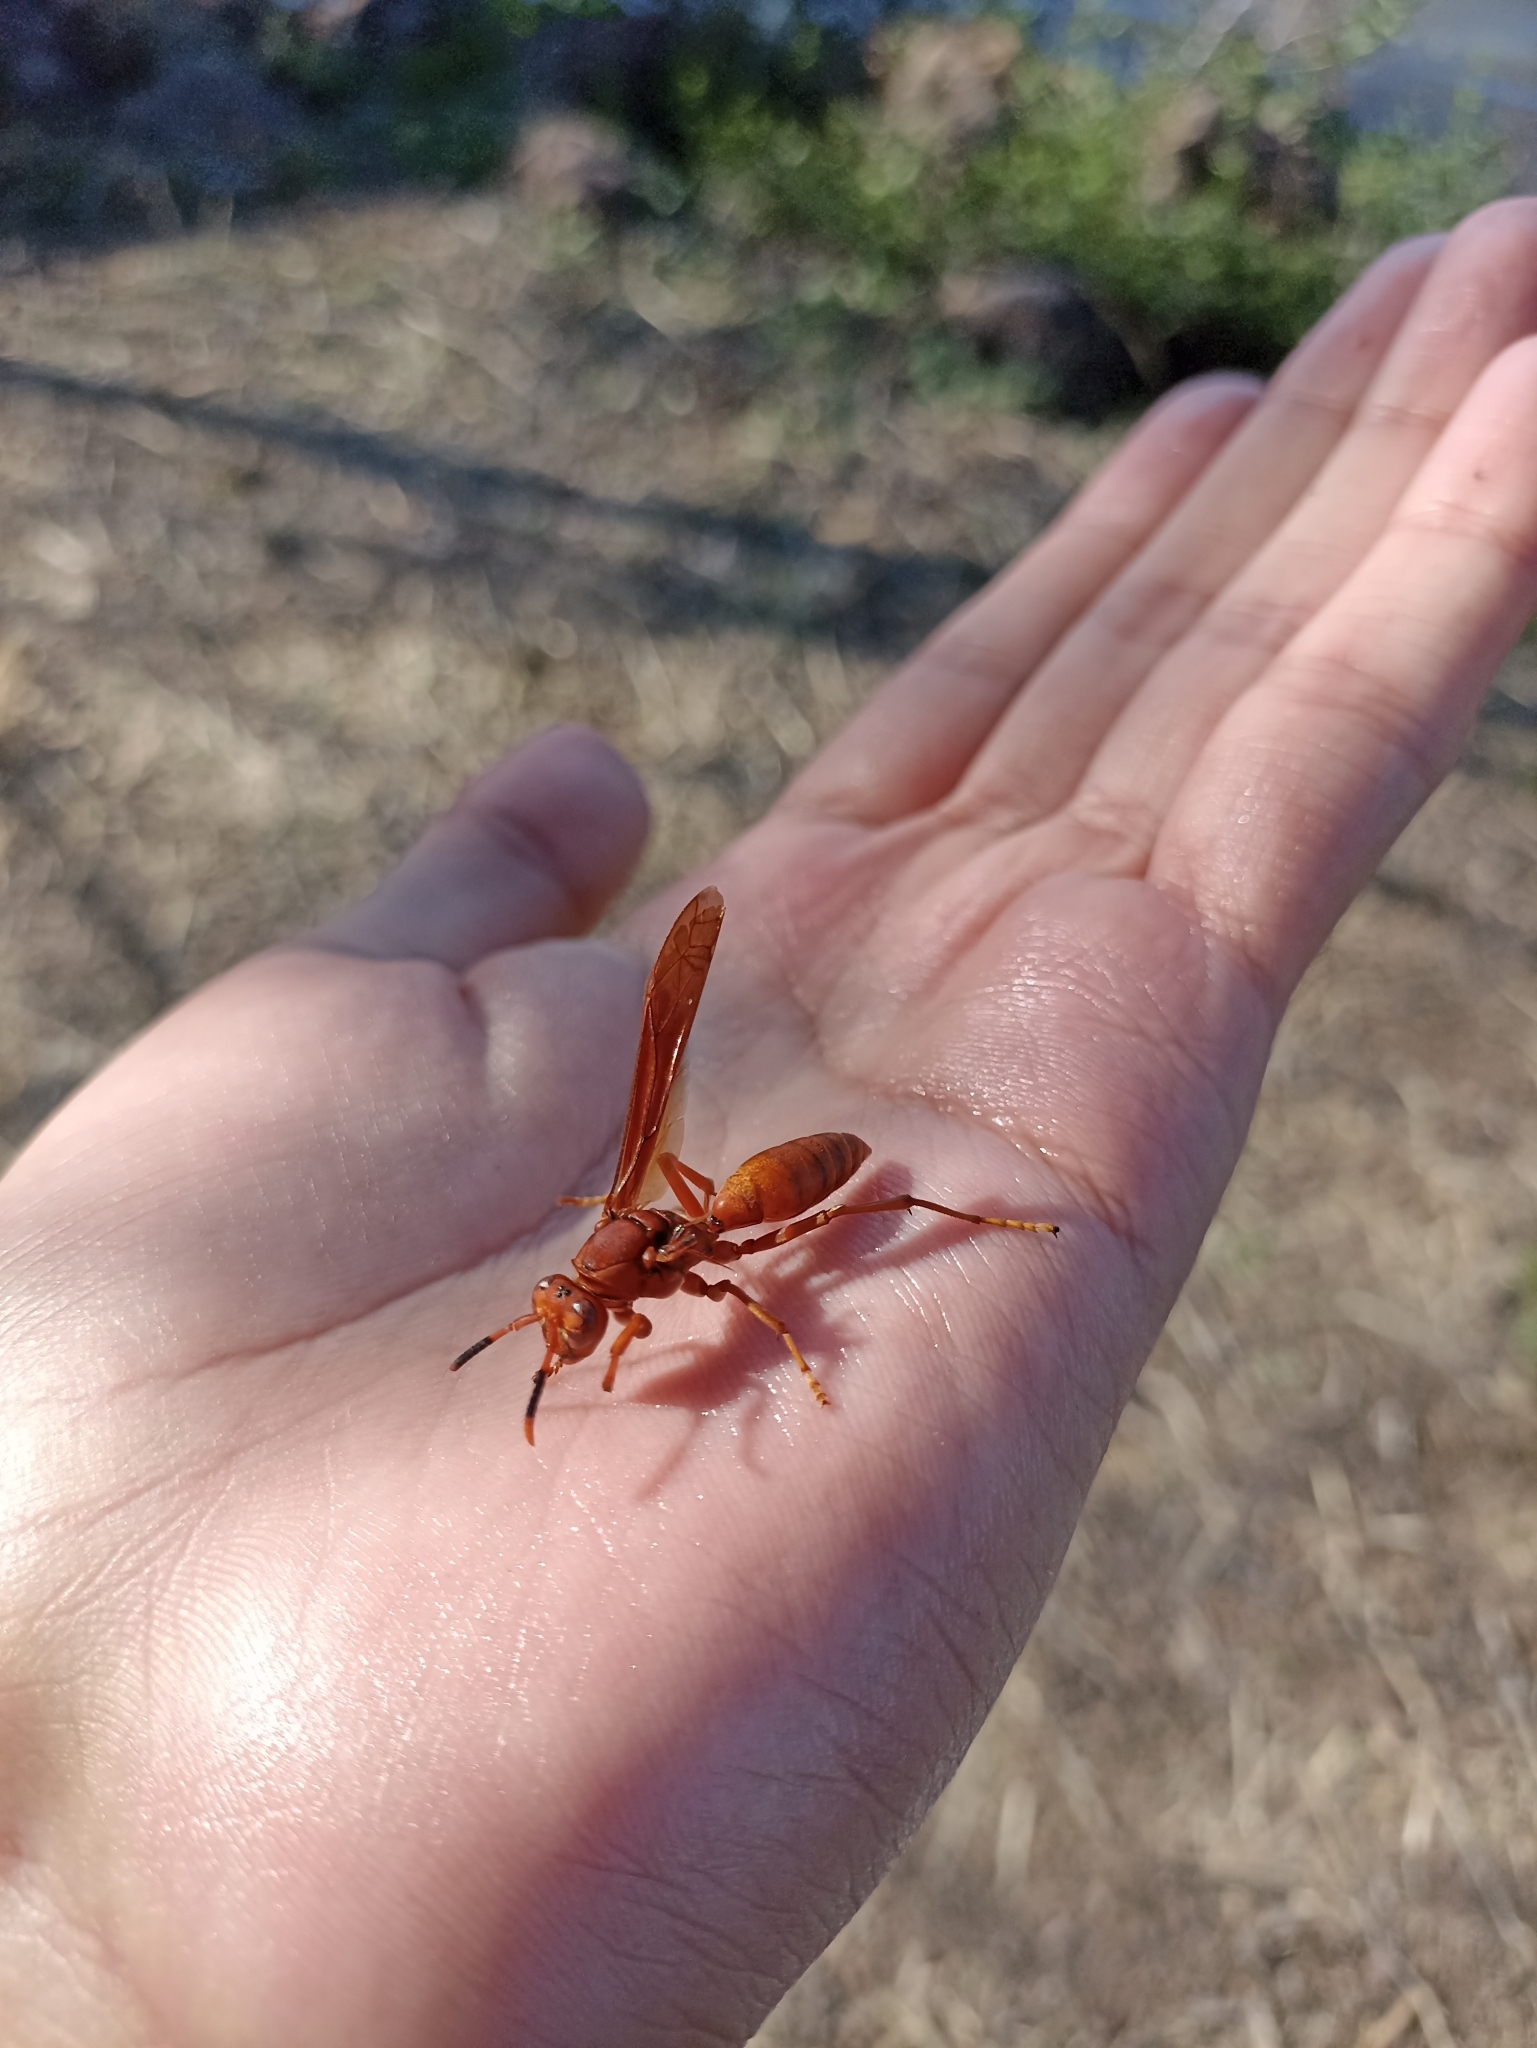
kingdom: Animalia
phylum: Arthropoda
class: Insecta
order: Hymenoptera
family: Eumenidae
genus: Polistes
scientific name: Polistes canadensis
